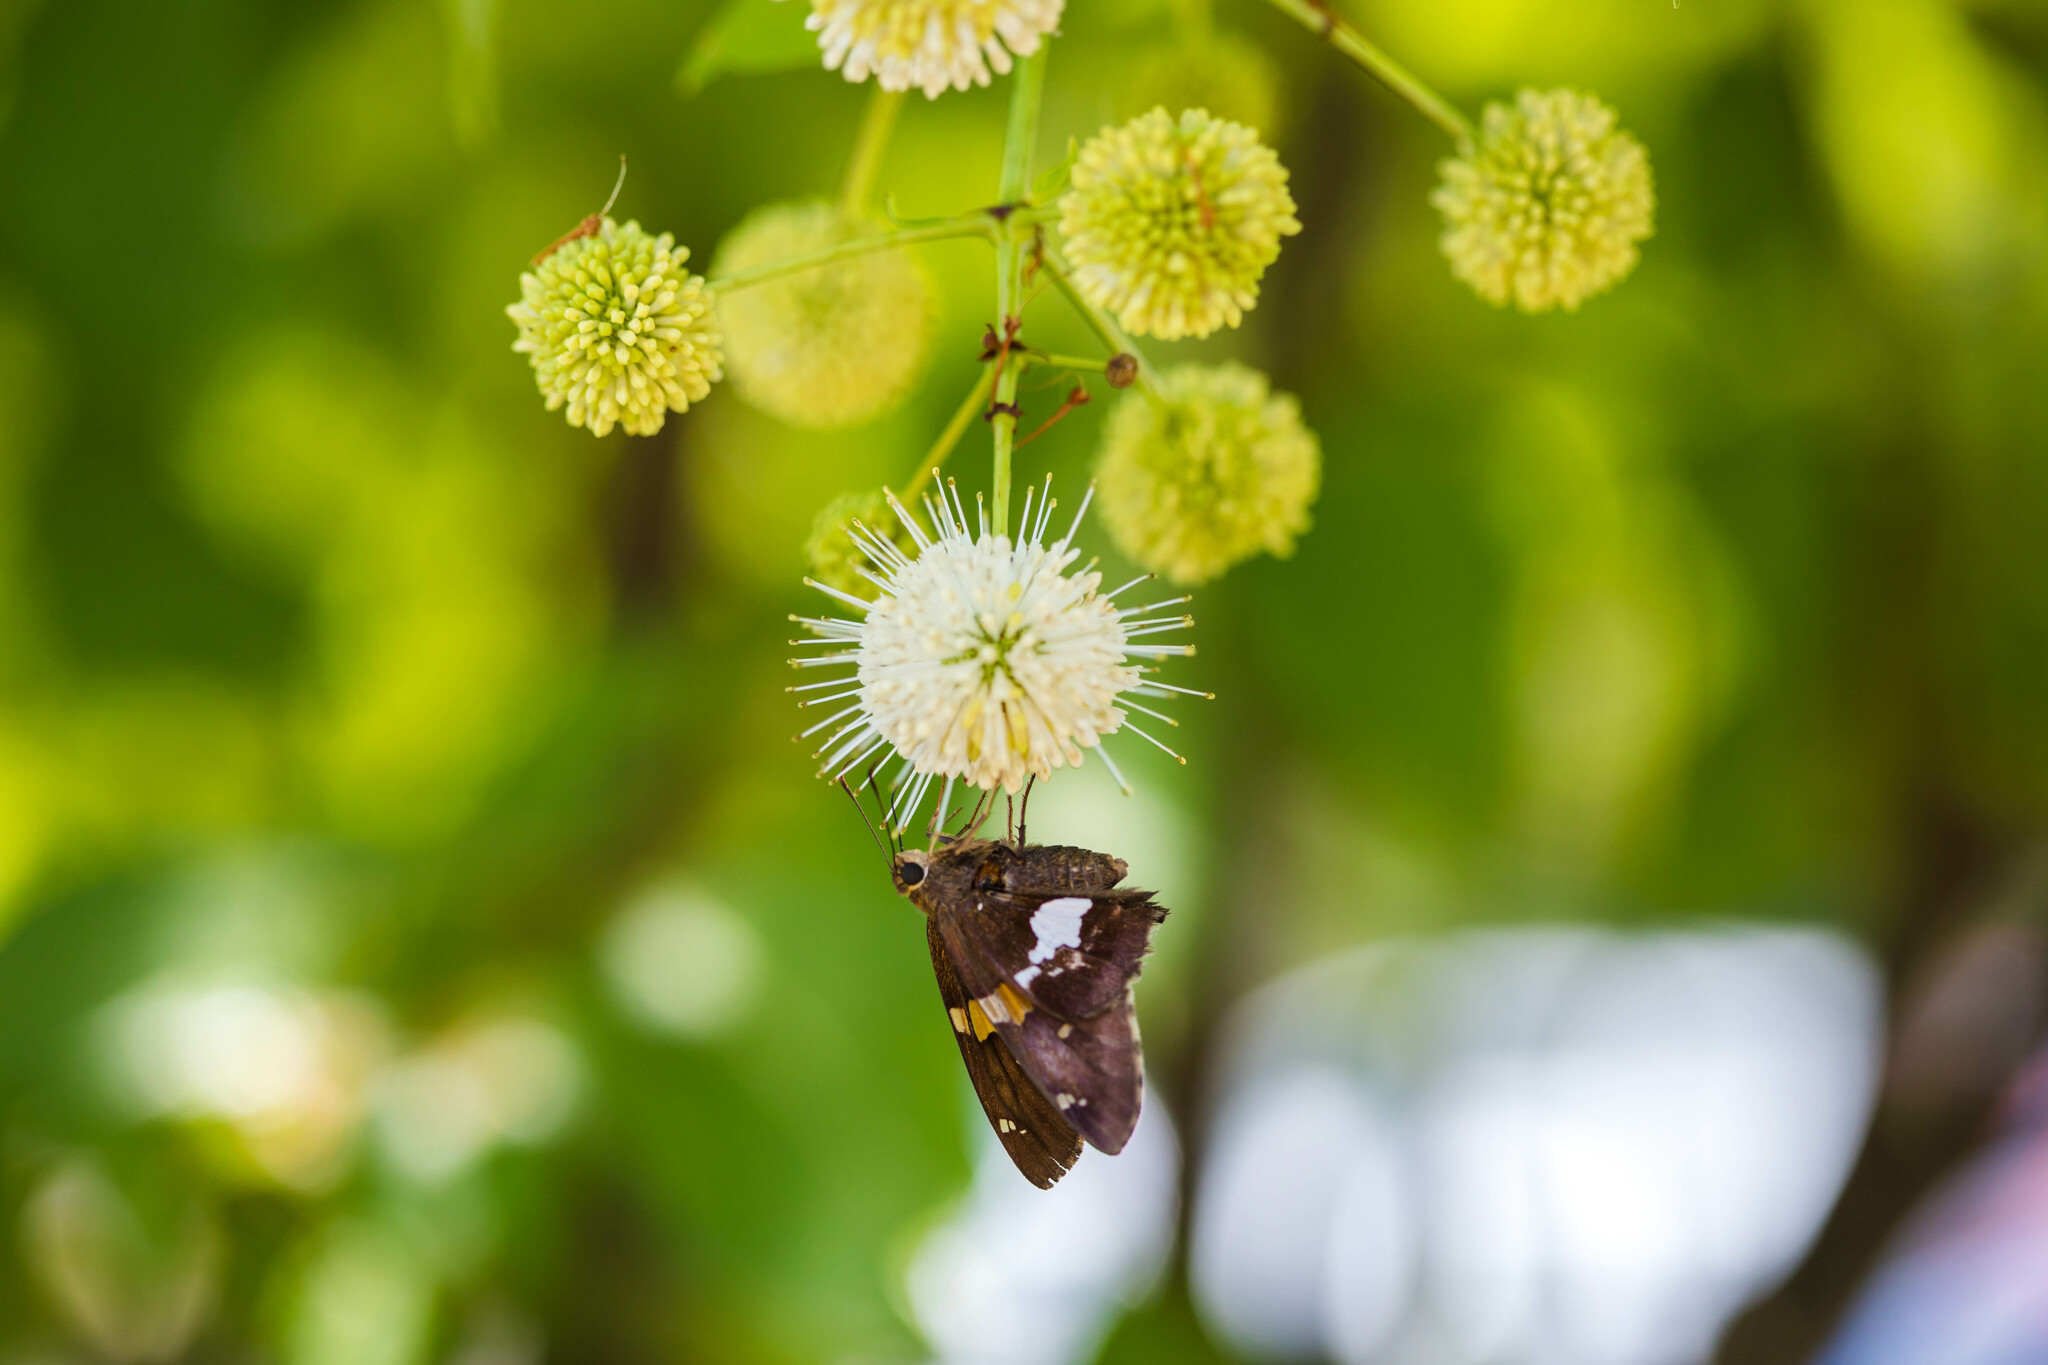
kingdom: Animalia
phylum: Arthropoda
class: Insecta
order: Lepidoptera
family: Hesperiidae
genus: Epargyreus
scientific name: Epargyreus clarus
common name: Silver-spotted skipper
